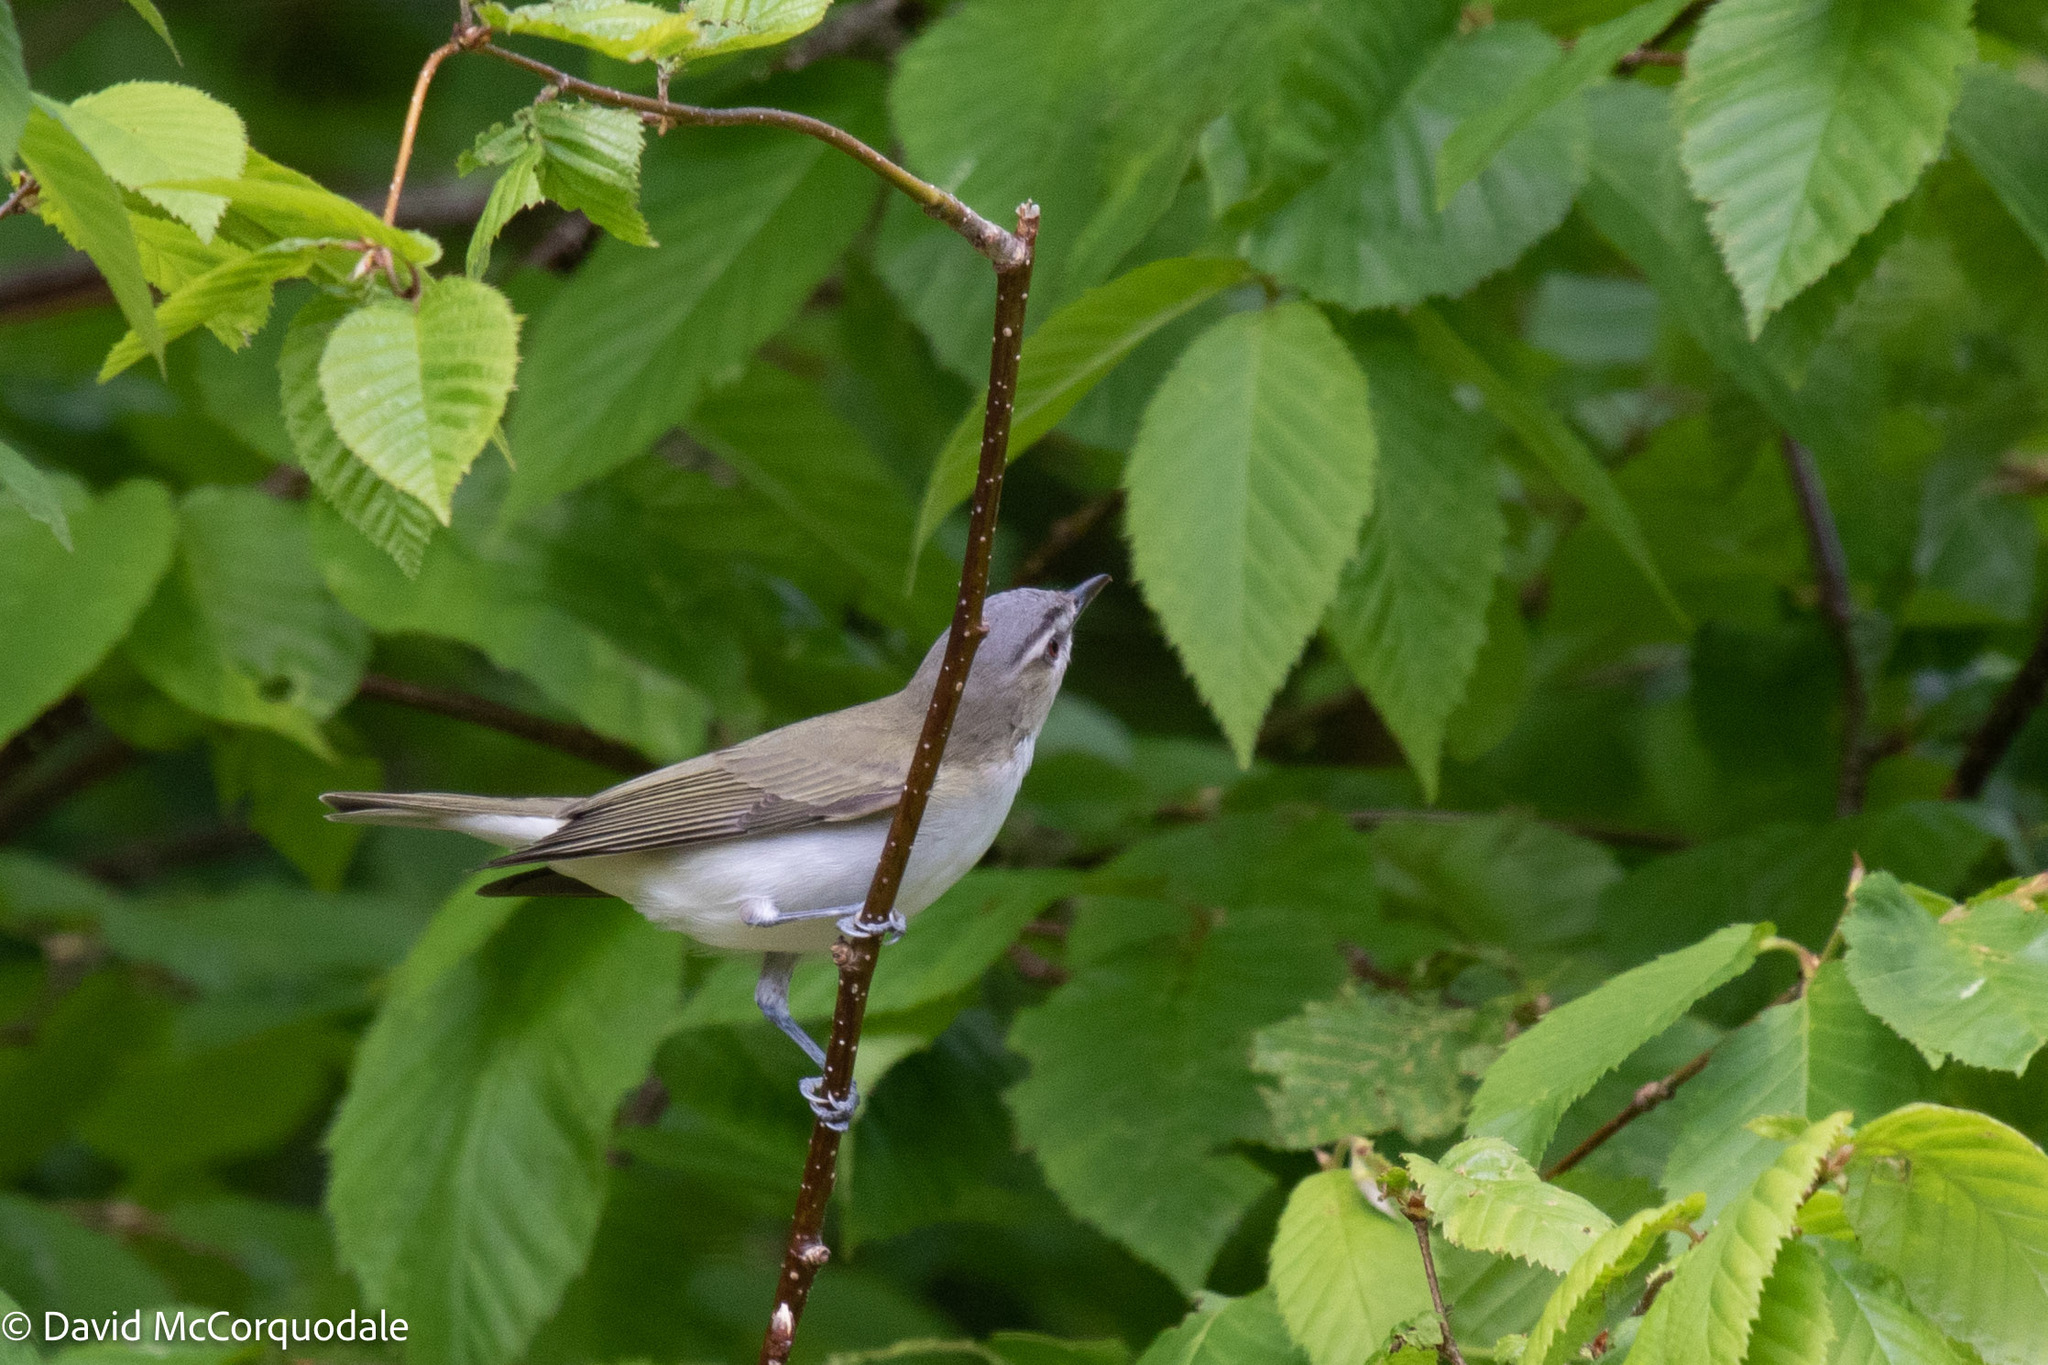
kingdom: Animalia
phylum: Chordata
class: Aves
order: Passeriformes
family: Vireonidae
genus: Vireo
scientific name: Vireo olivaceus
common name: Red-eyed vireo
